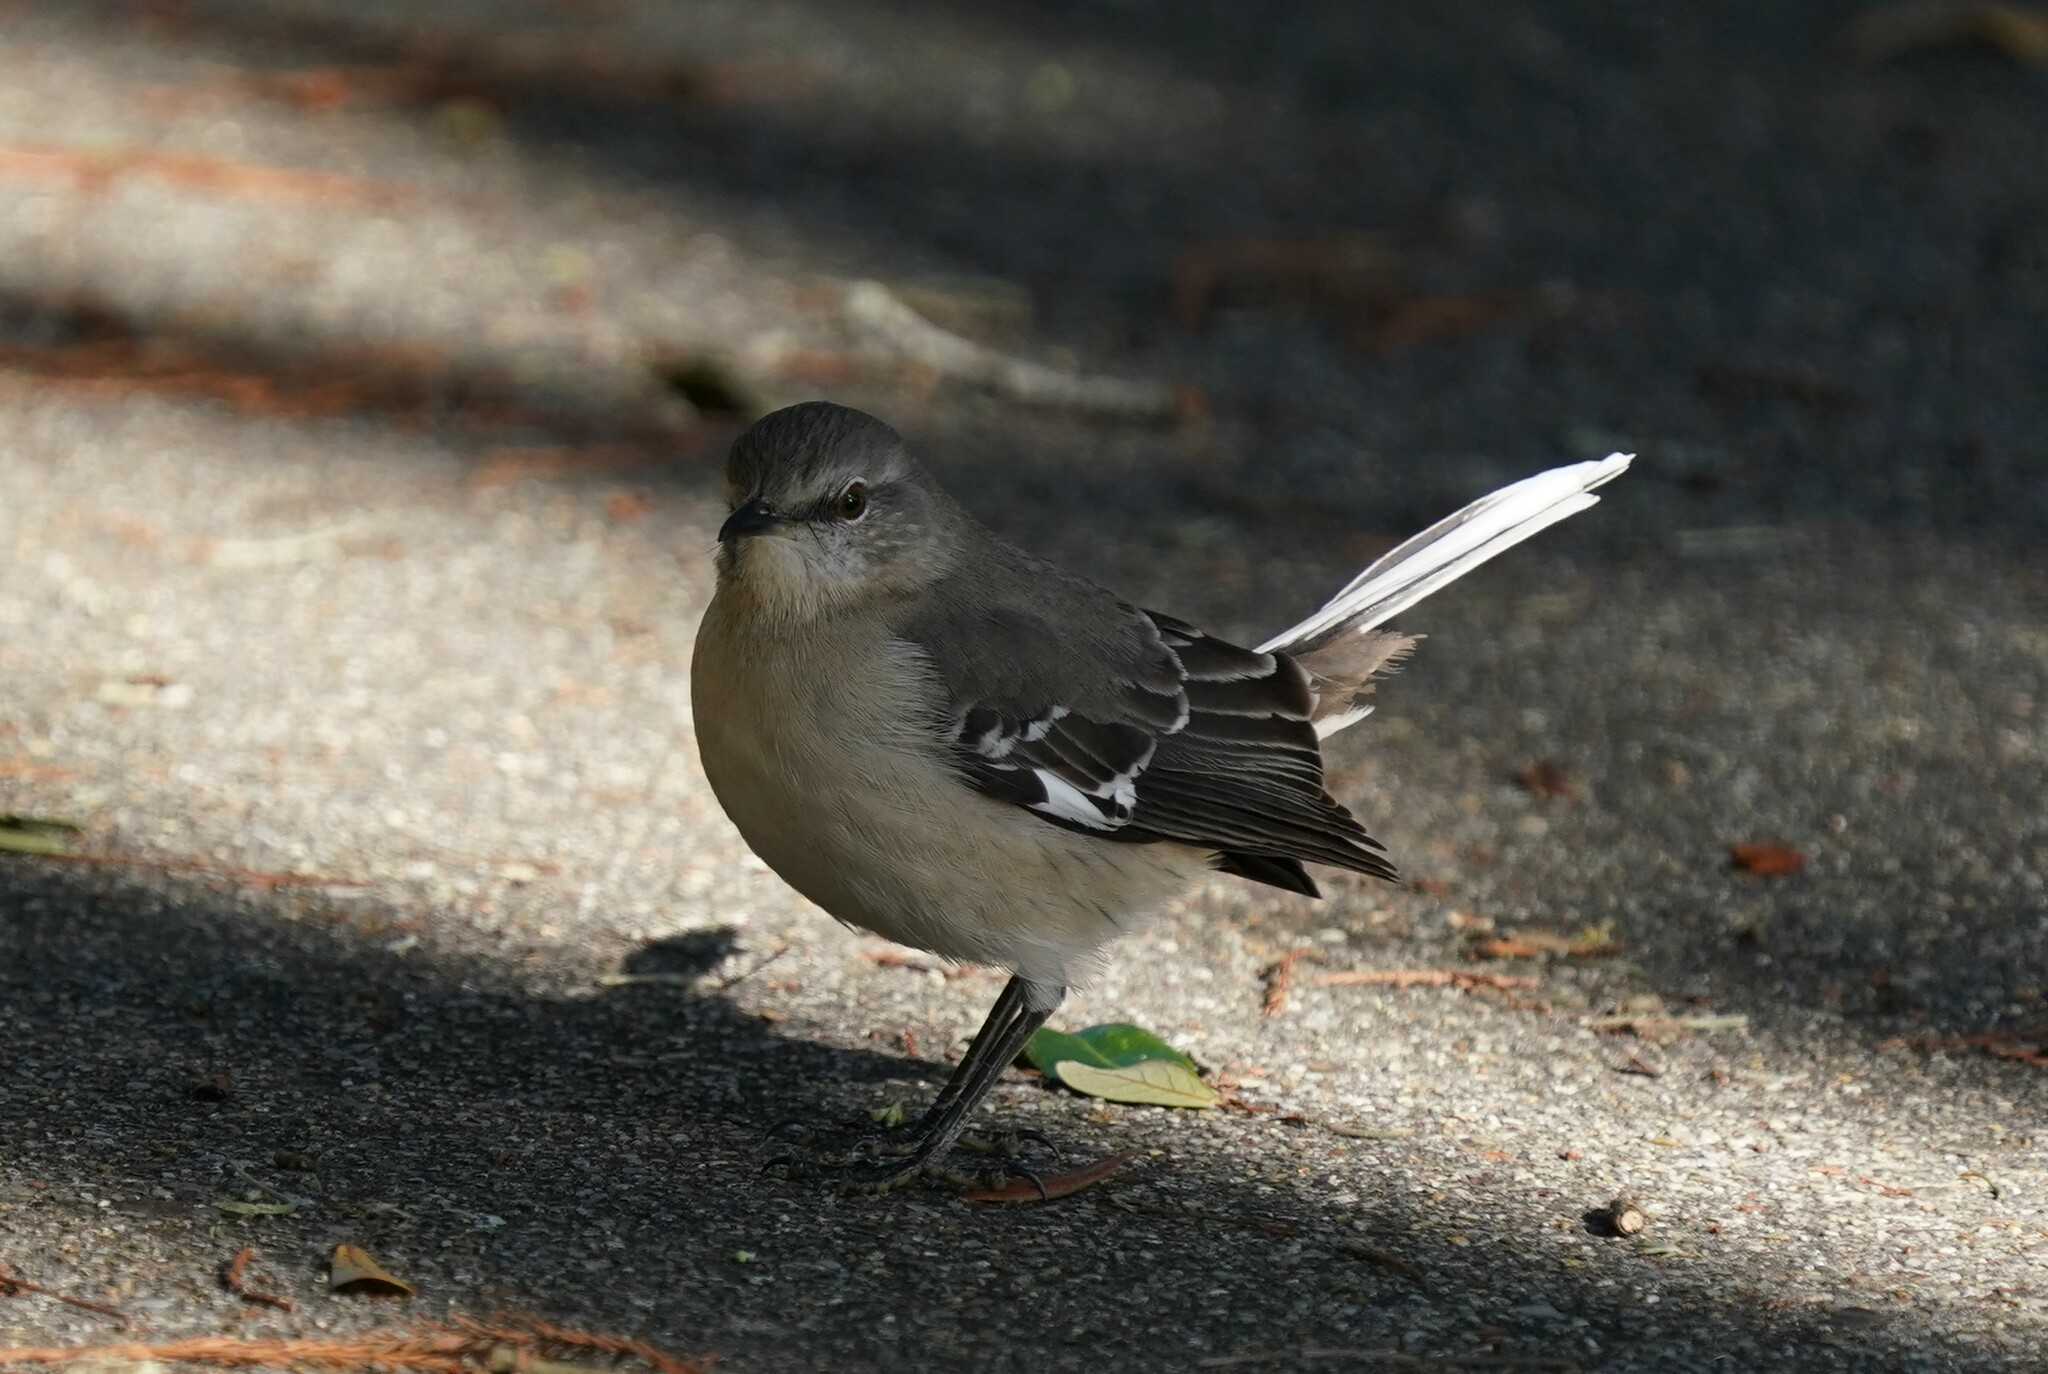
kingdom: Animalia
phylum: Chordata
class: Aves
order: Passeriformes
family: Mimidae
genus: Mimus
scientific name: Mimus polyglottos
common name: Northern mockingbird
